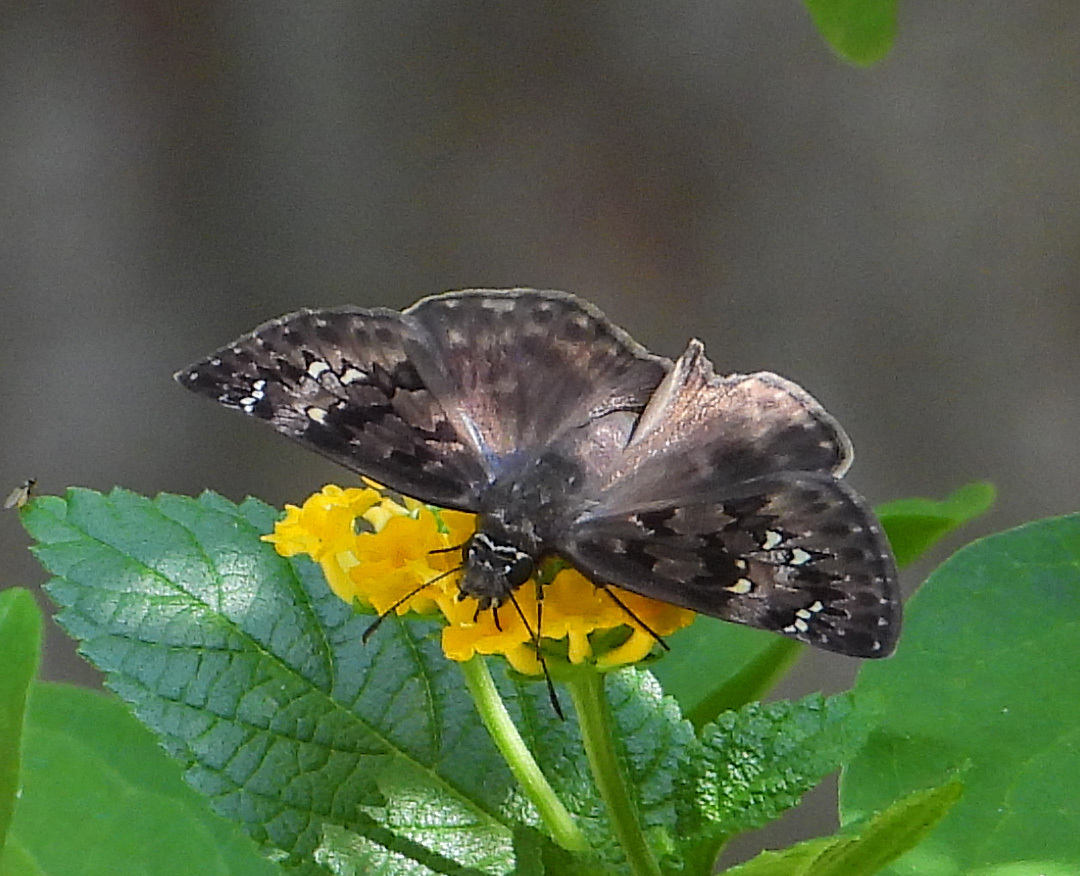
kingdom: Animalia
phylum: Arthropoda
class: Insecta
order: Lepidoptera
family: Hesperiidae
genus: Erynnis
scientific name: Erynnis horatius
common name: Horace's duskywing
